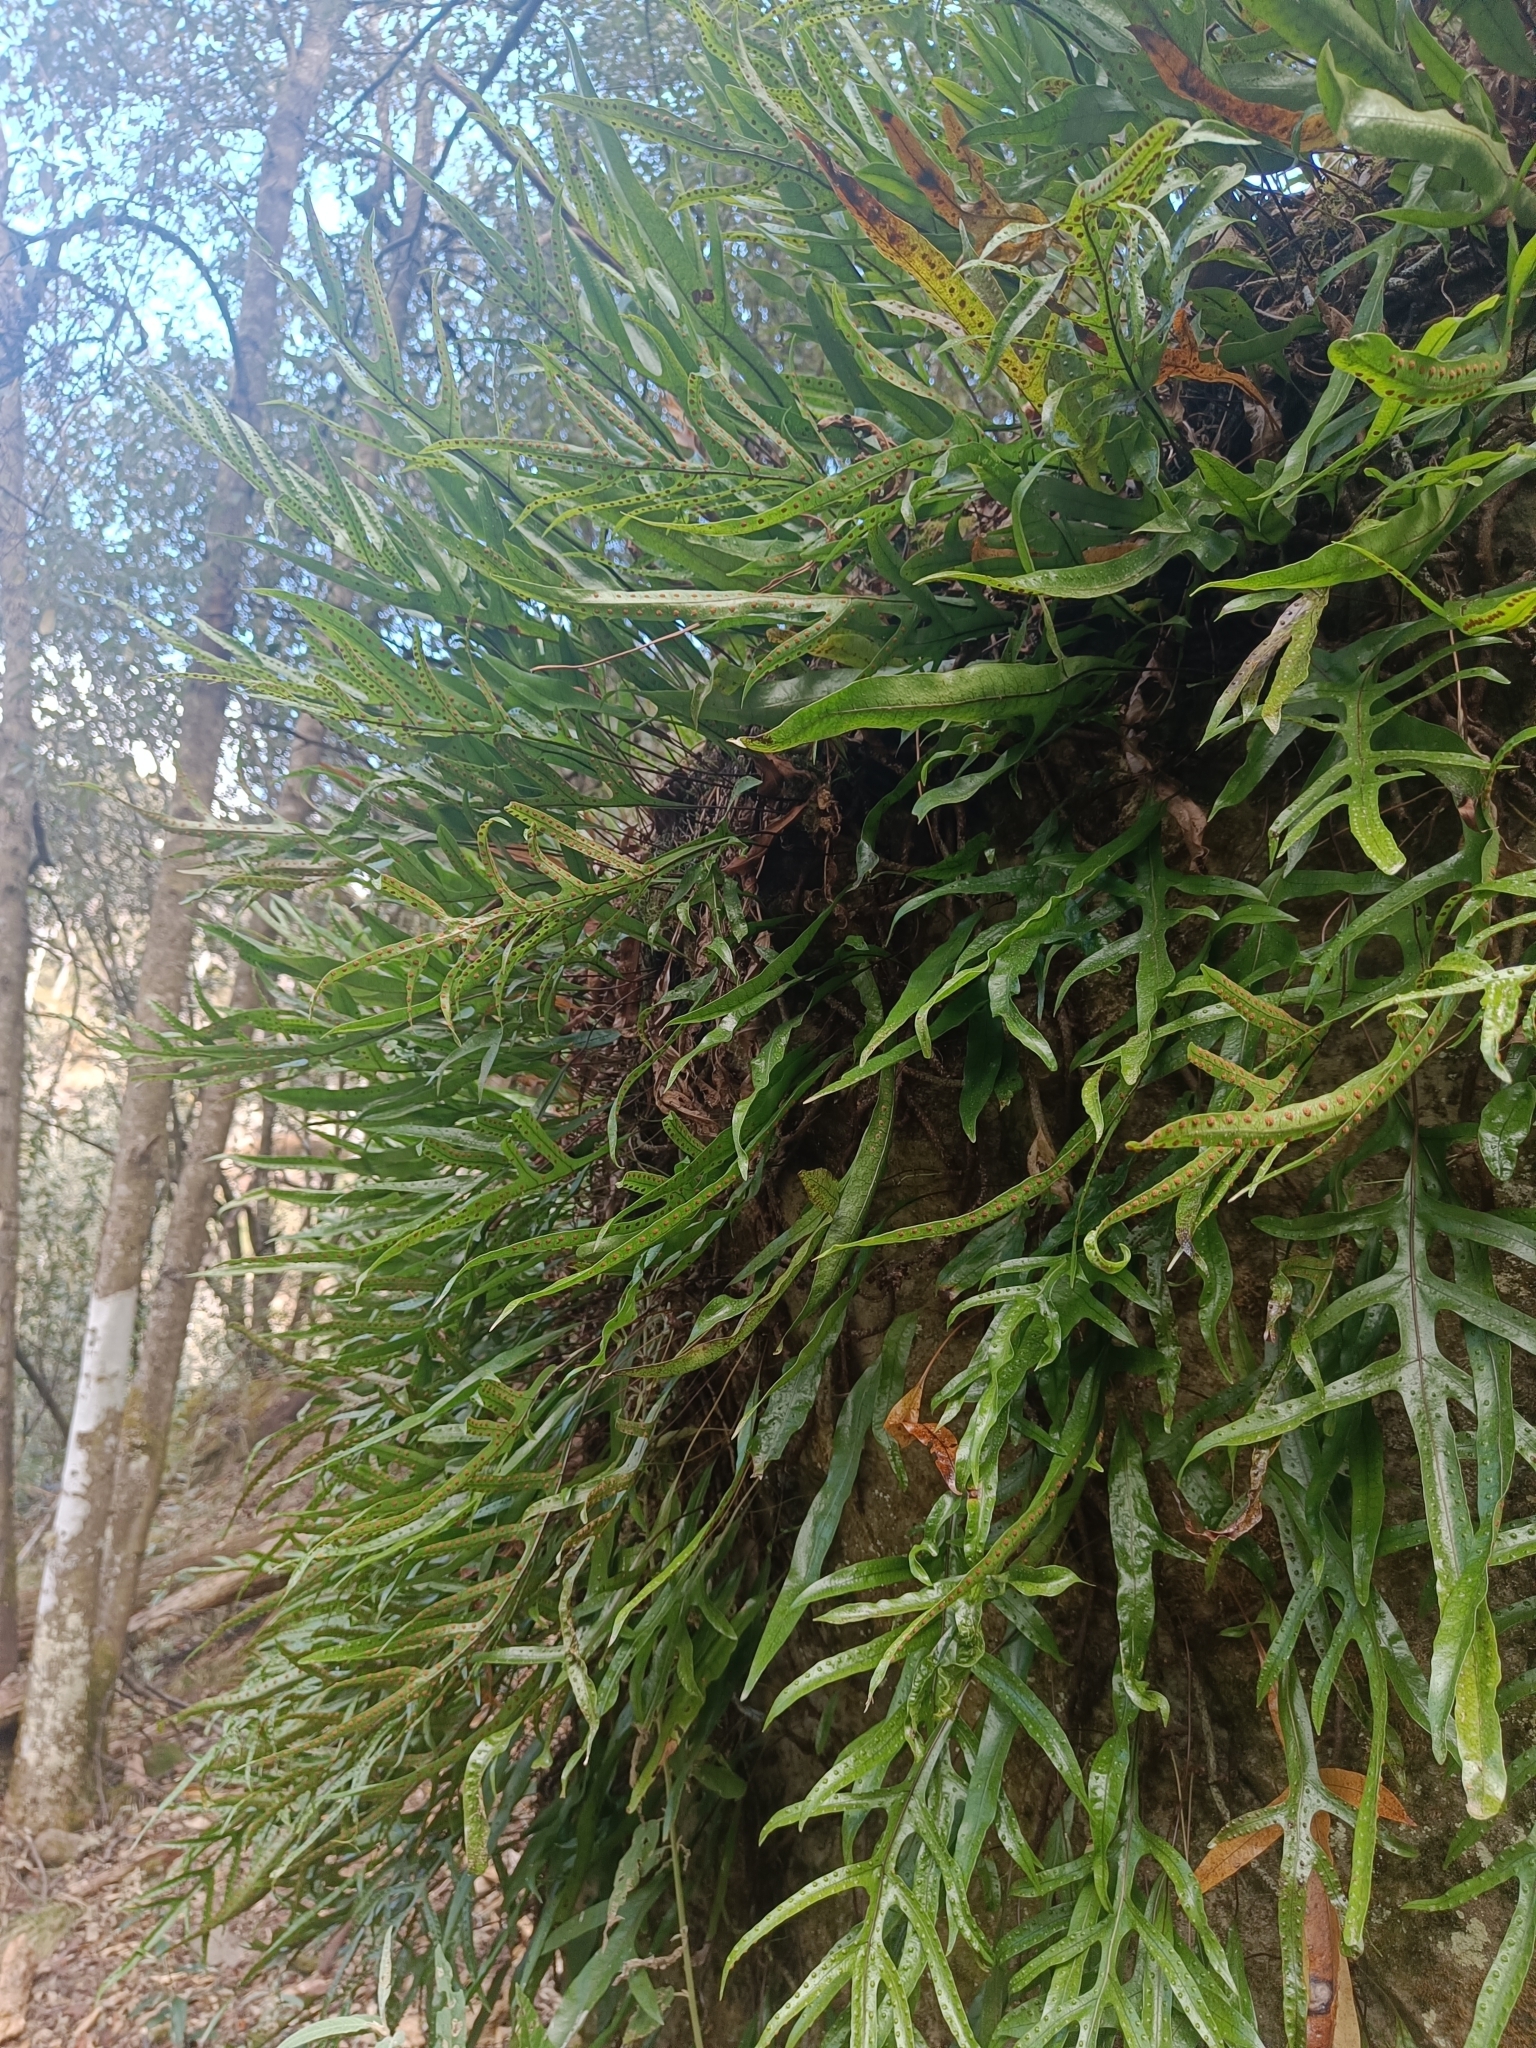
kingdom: Plantae
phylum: Tracheophyta
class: Polypodiopsida
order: Polypodiales
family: Polypodiaceae
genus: Lecanopteris
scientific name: Lecanopteris pustulata
